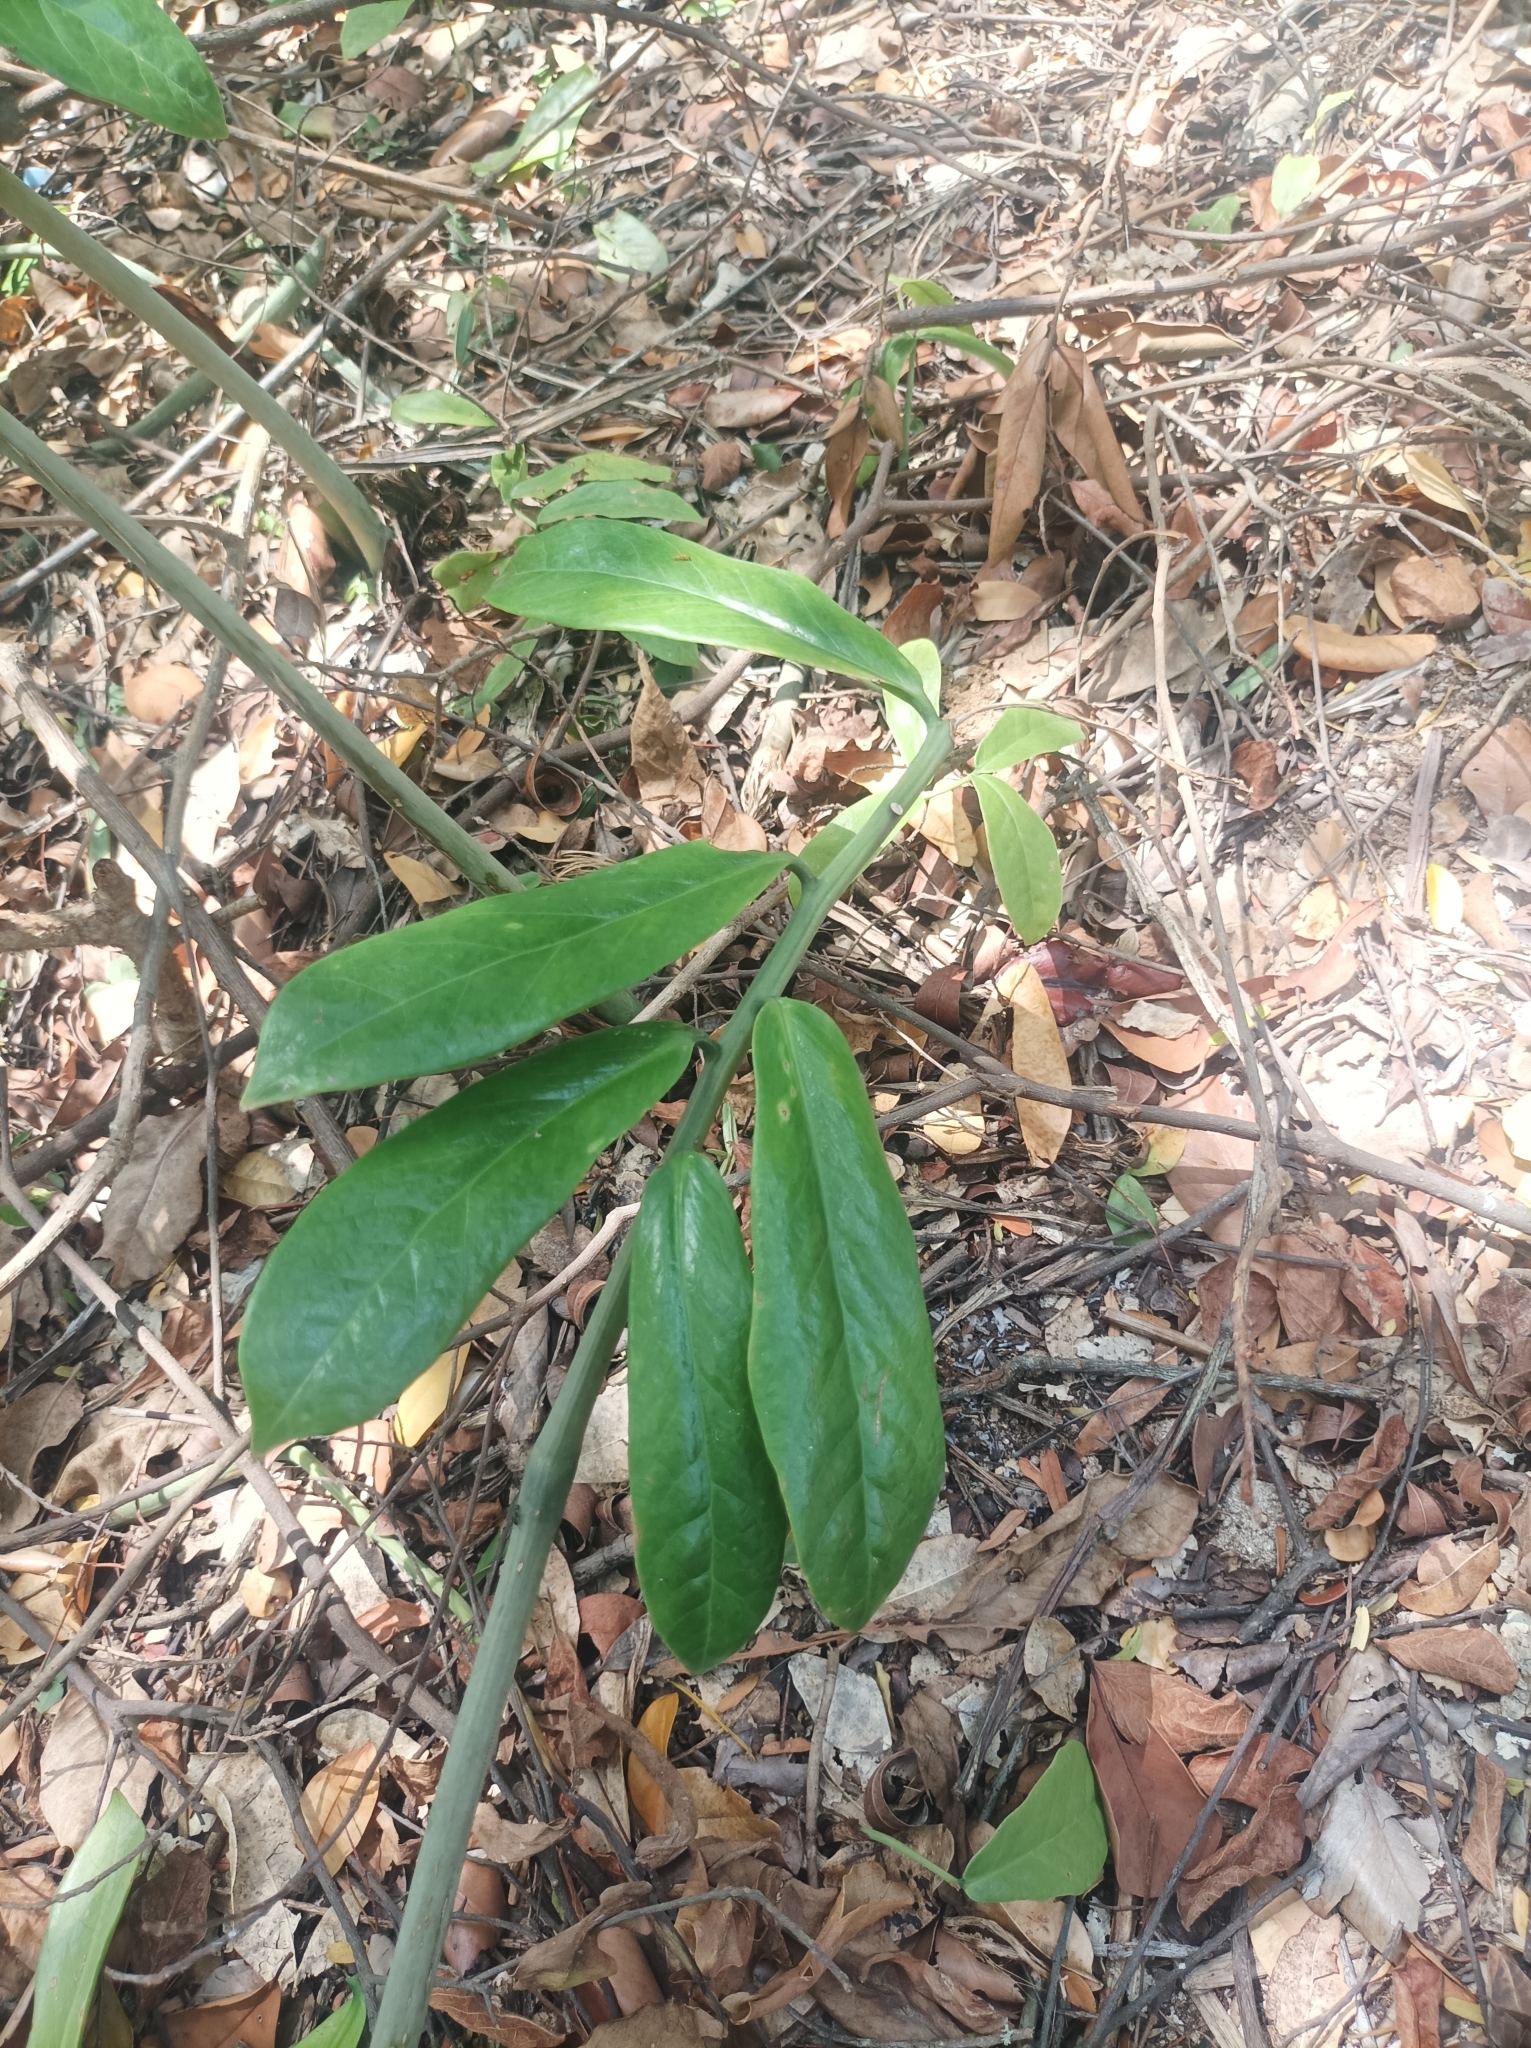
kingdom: Plantae
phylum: Tracheophyta
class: Liliopsida
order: Alismatales
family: Araceae
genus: Zamioculcas
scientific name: Zamioculcas zamiifolia
